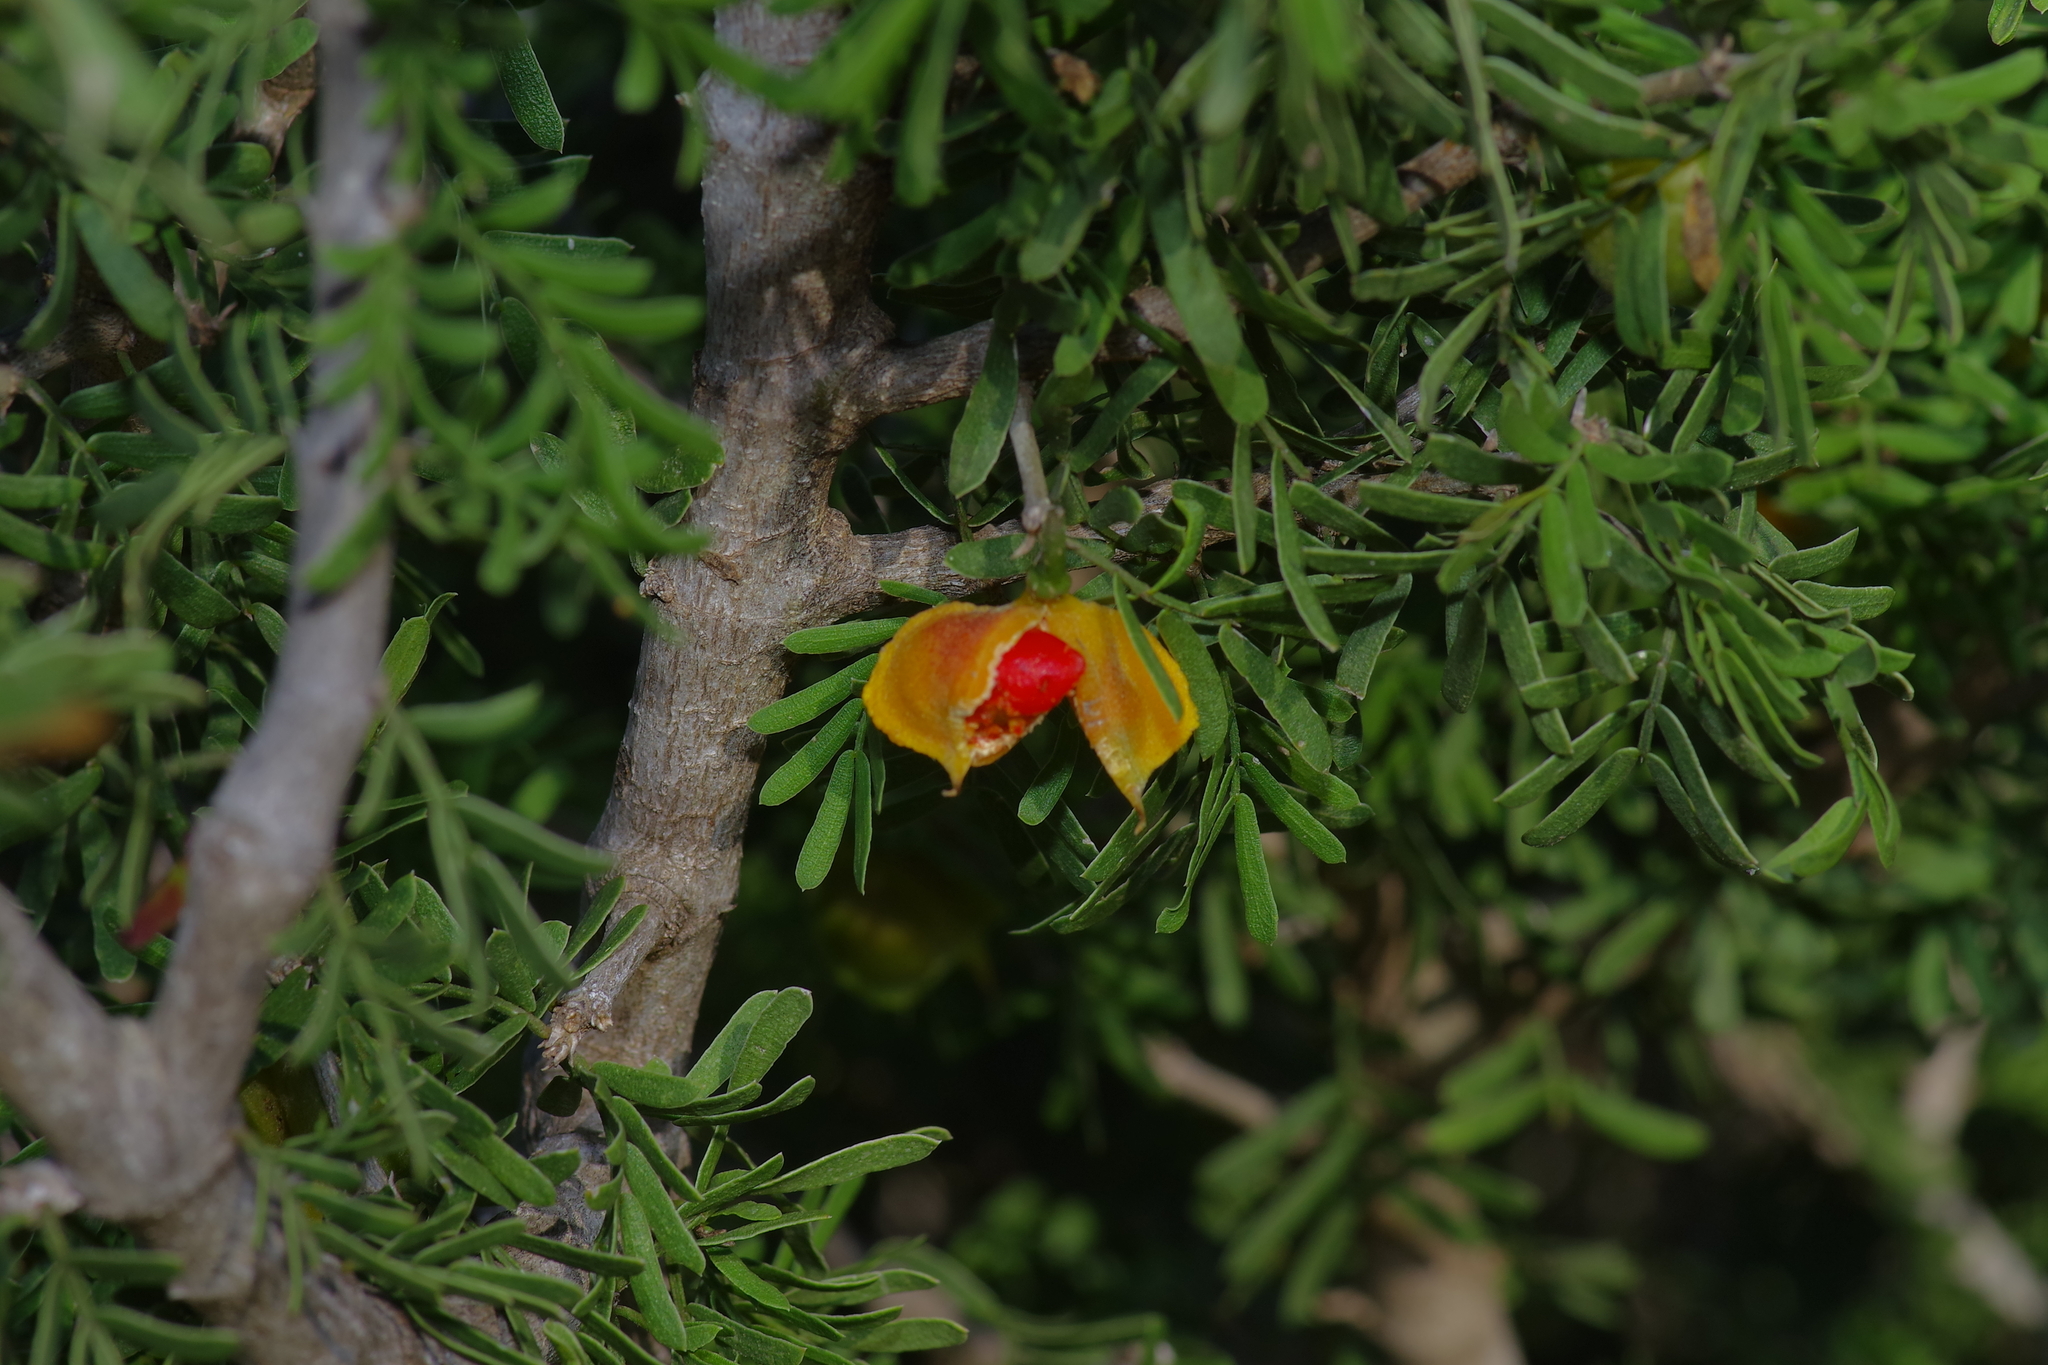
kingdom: Plantae
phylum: Tracheophyta
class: Magnoliopsida
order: Zygophyllales
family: Zygophyllaceae
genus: Porlieria
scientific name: Porlieria angustifolia
